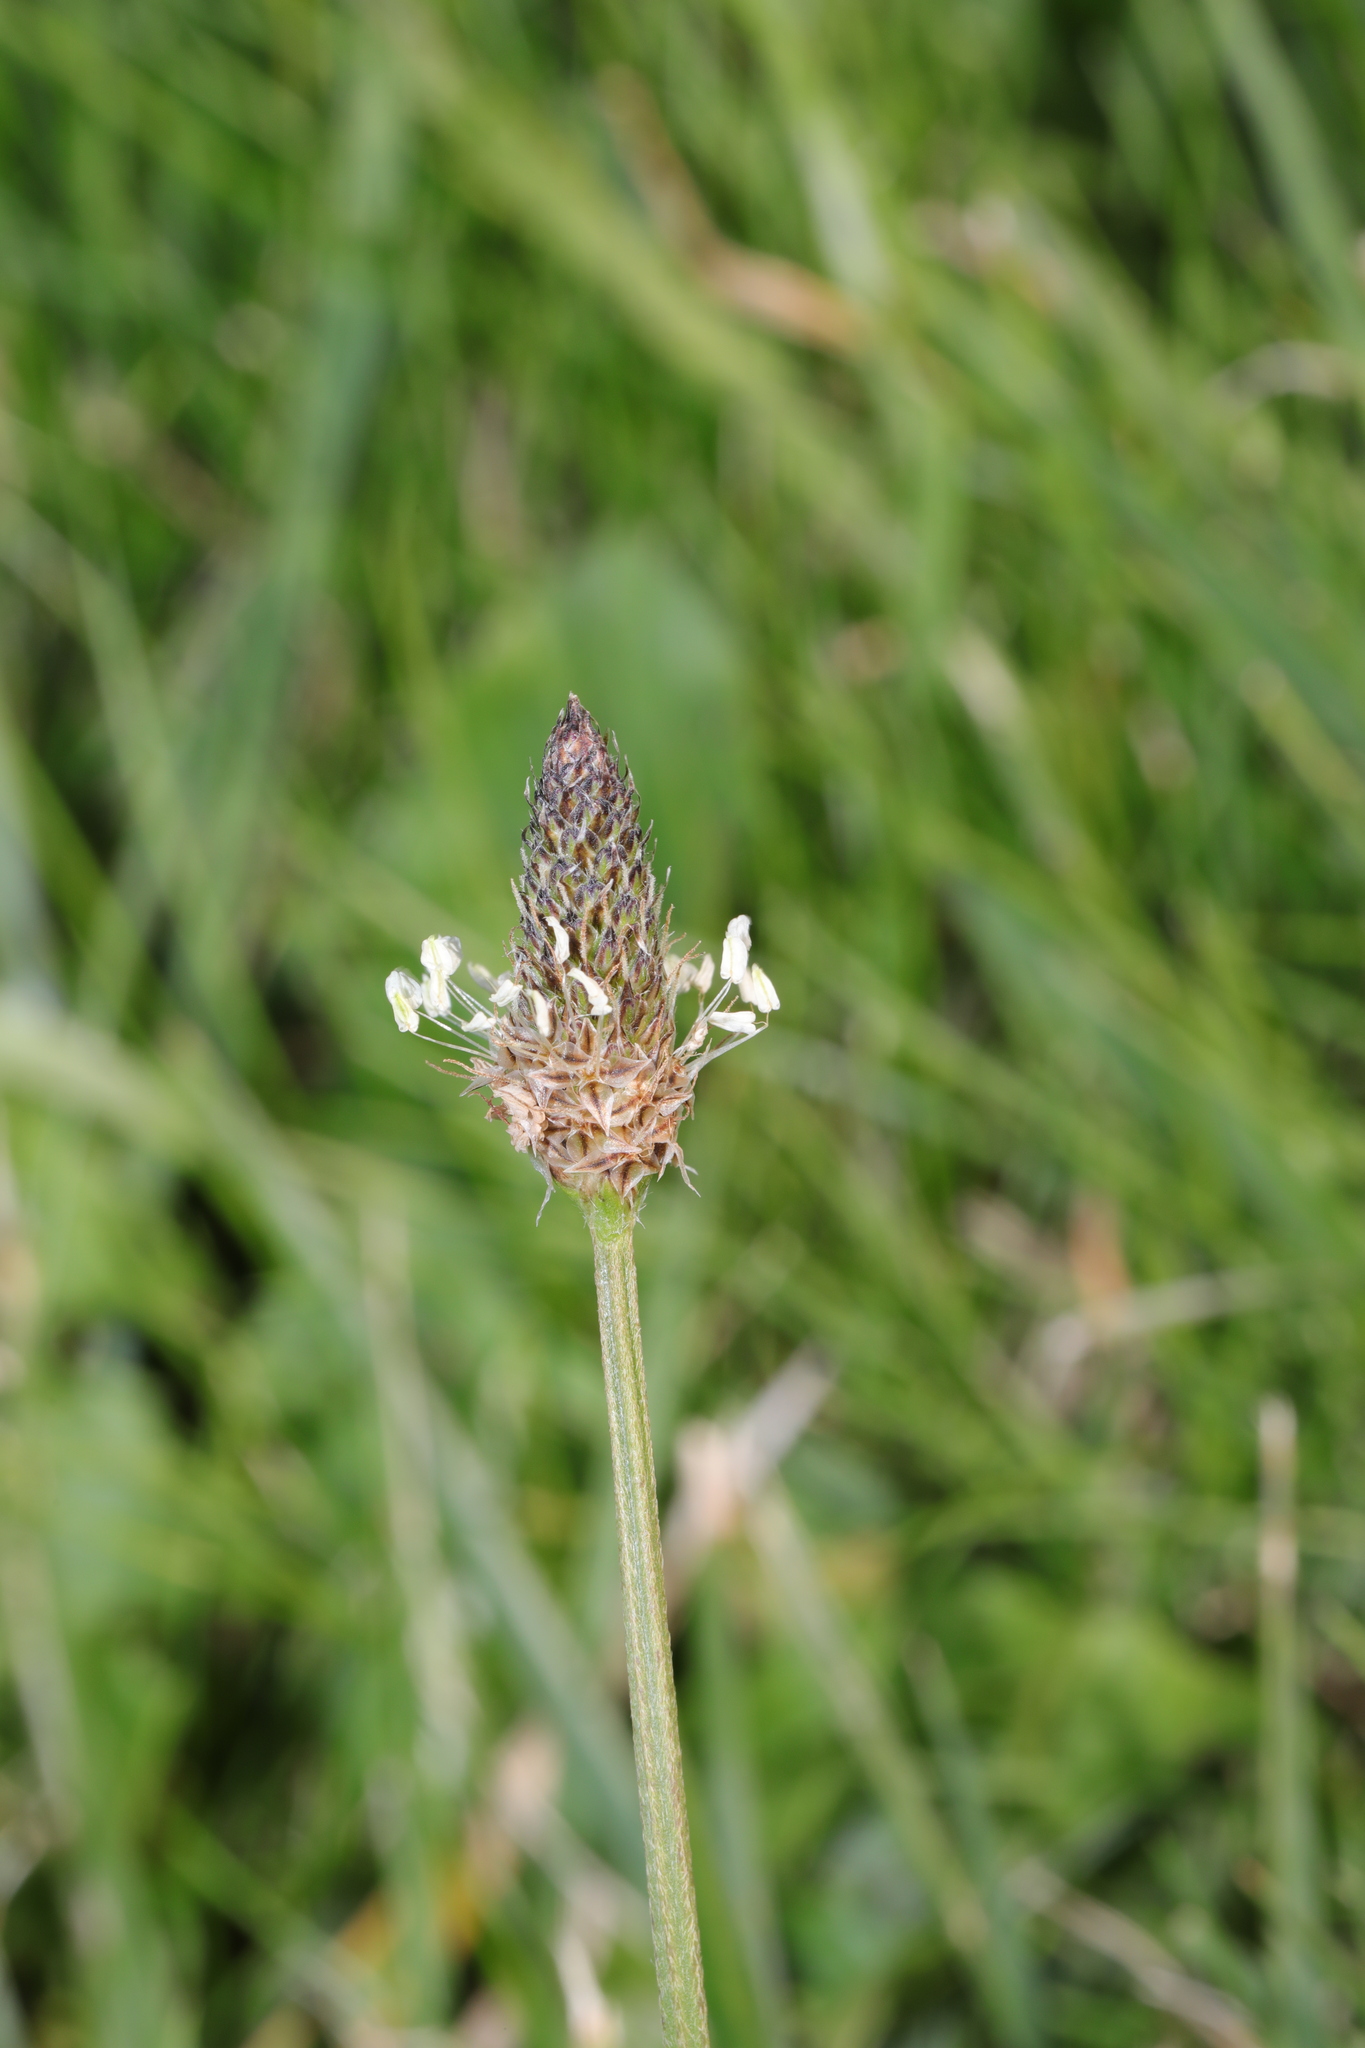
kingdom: Plantae
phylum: Tracheophyta
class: Magnoliopsida
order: Lamiales
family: Plantaginaceae
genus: Plantago
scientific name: Plantago lanceolata
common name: Ribwort plantain
